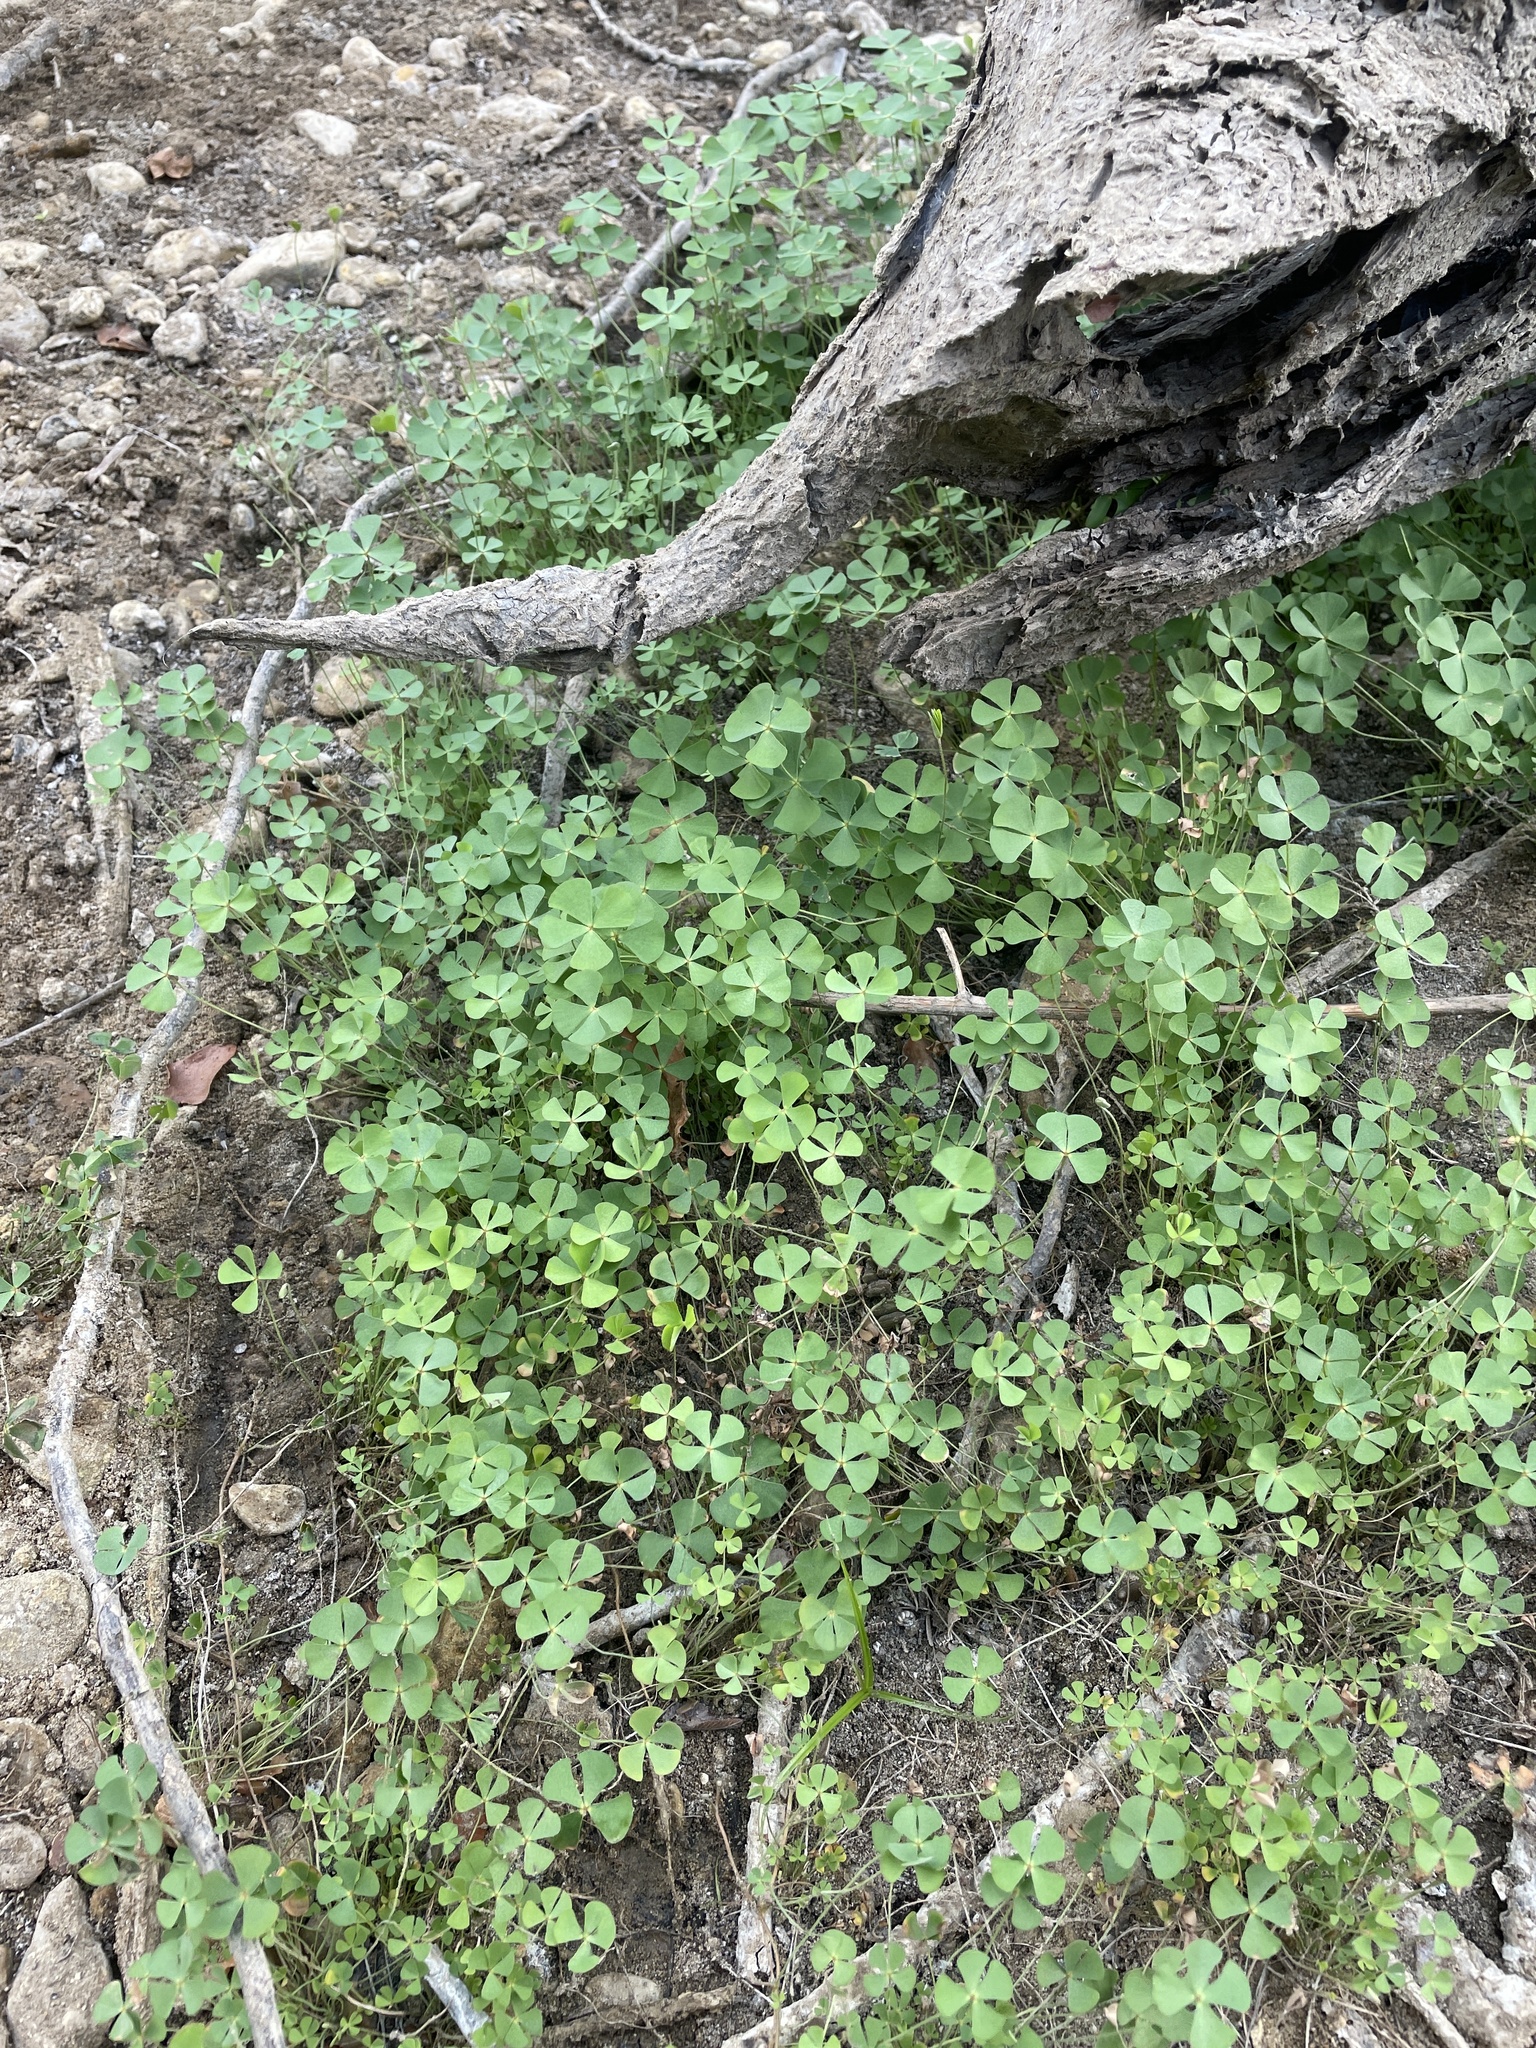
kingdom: Plantae
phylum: Tracheophyta
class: Polypodiopsida
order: Salviniales
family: Marsileaceae
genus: Marsilea
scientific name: Marsilea vestita
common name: Hooked-pepperwort
